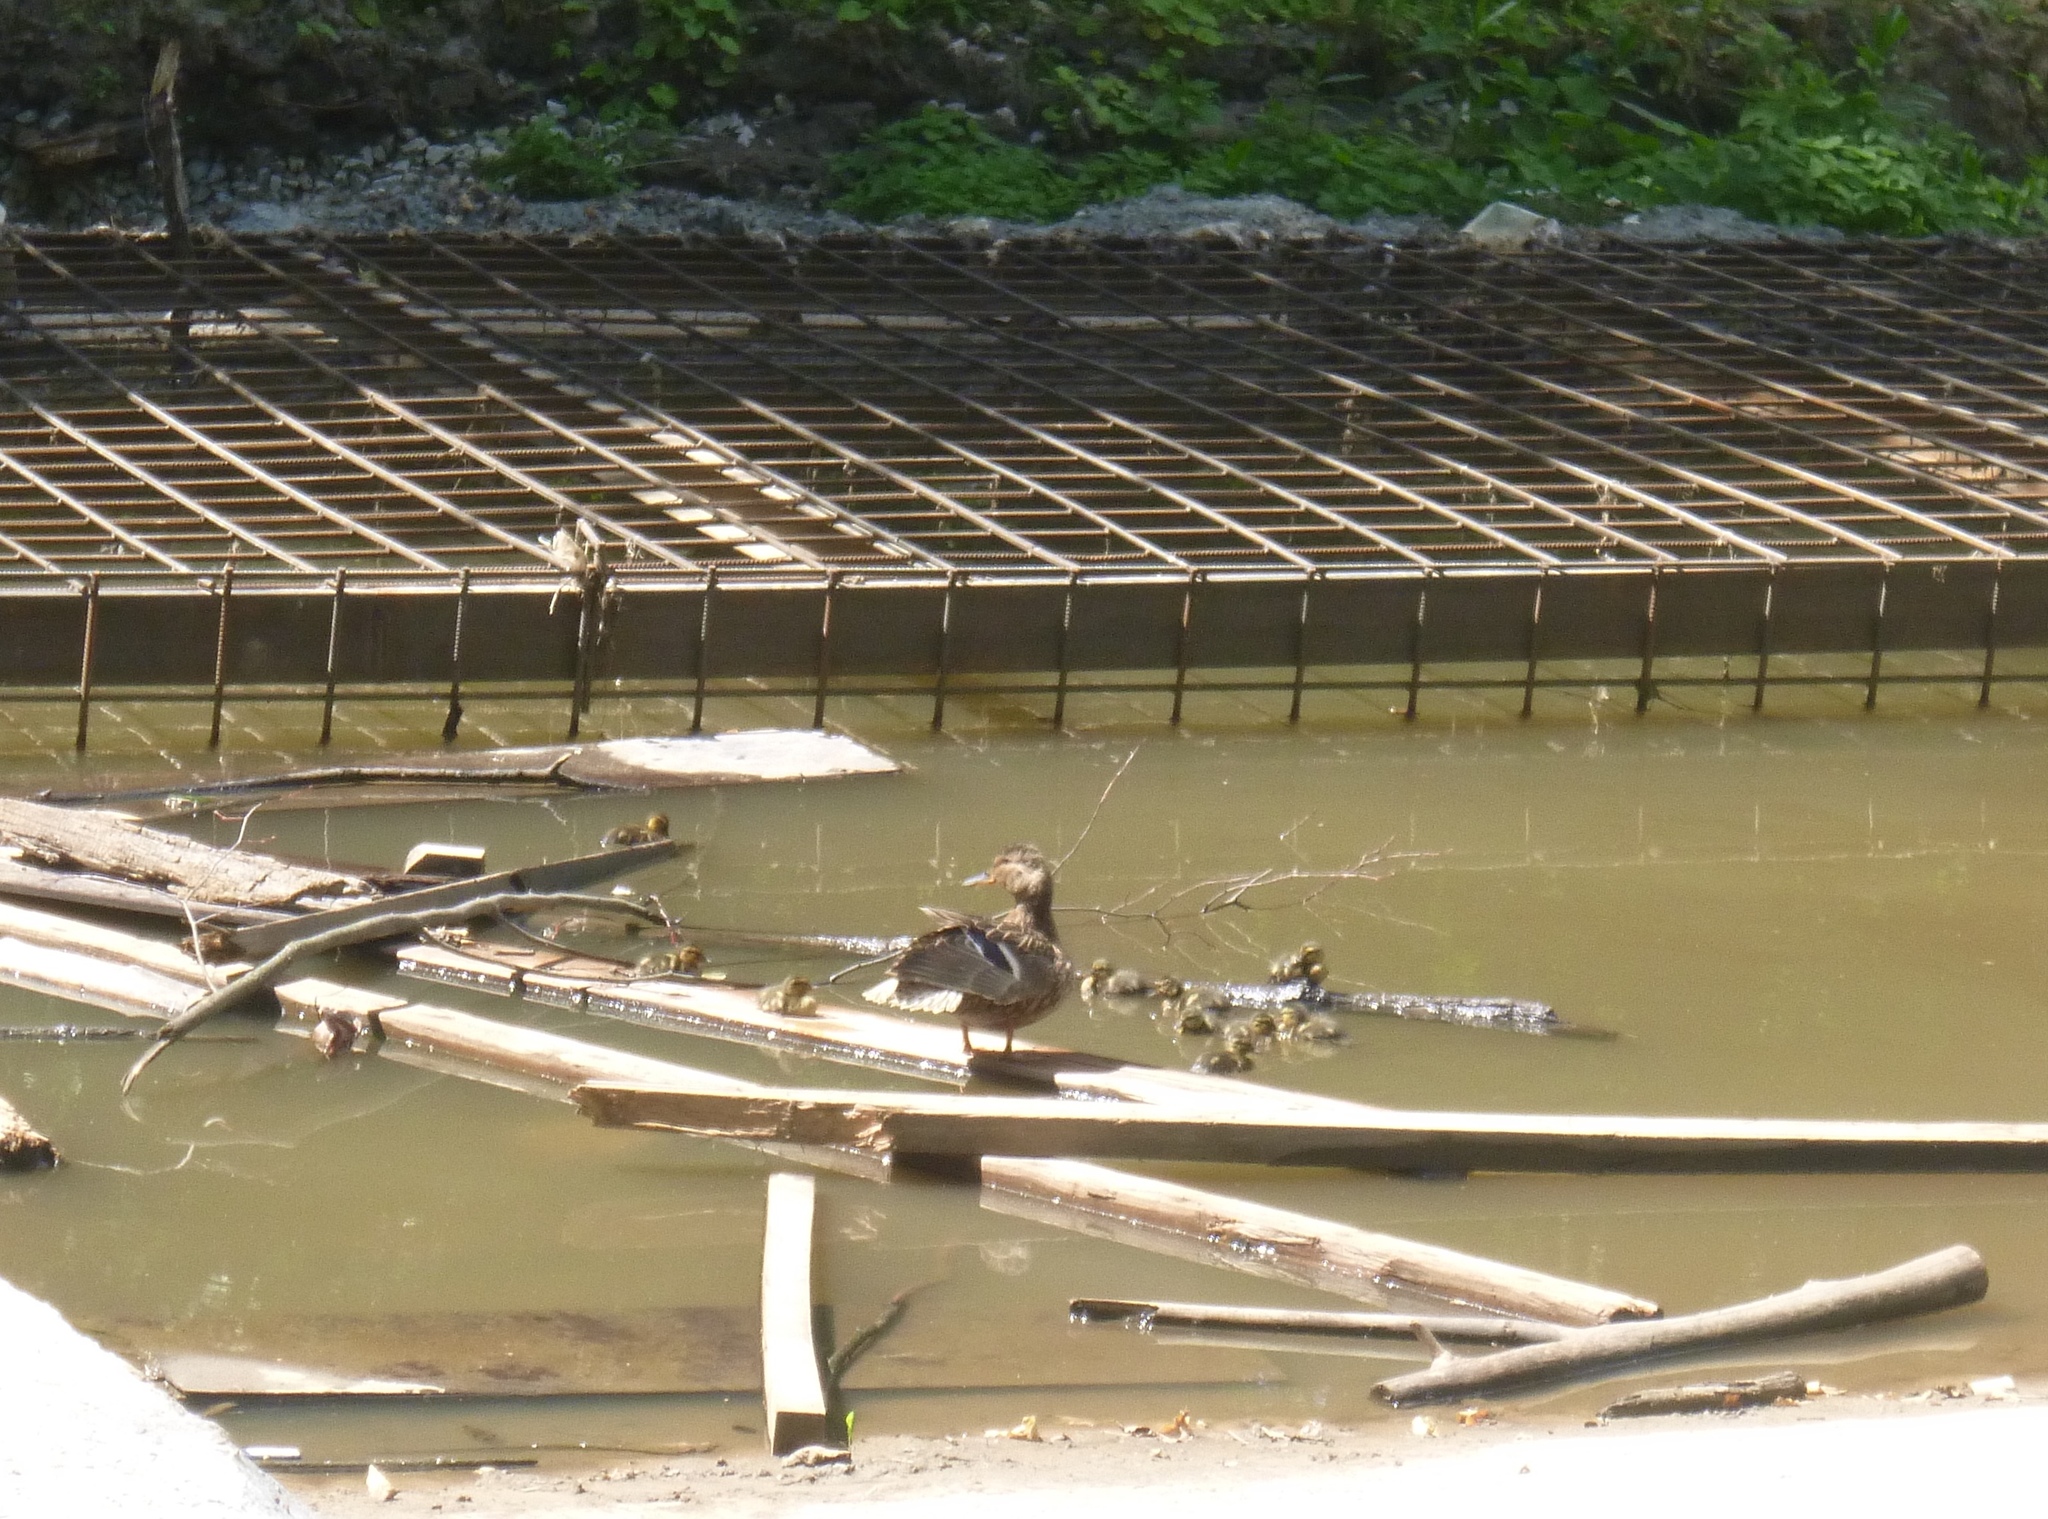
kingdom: Animalia
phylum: Chordata
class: Aves
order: Anseriformes
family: Anatidae
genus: Anas
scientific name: Anas platyrhynchos
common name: Mallard
